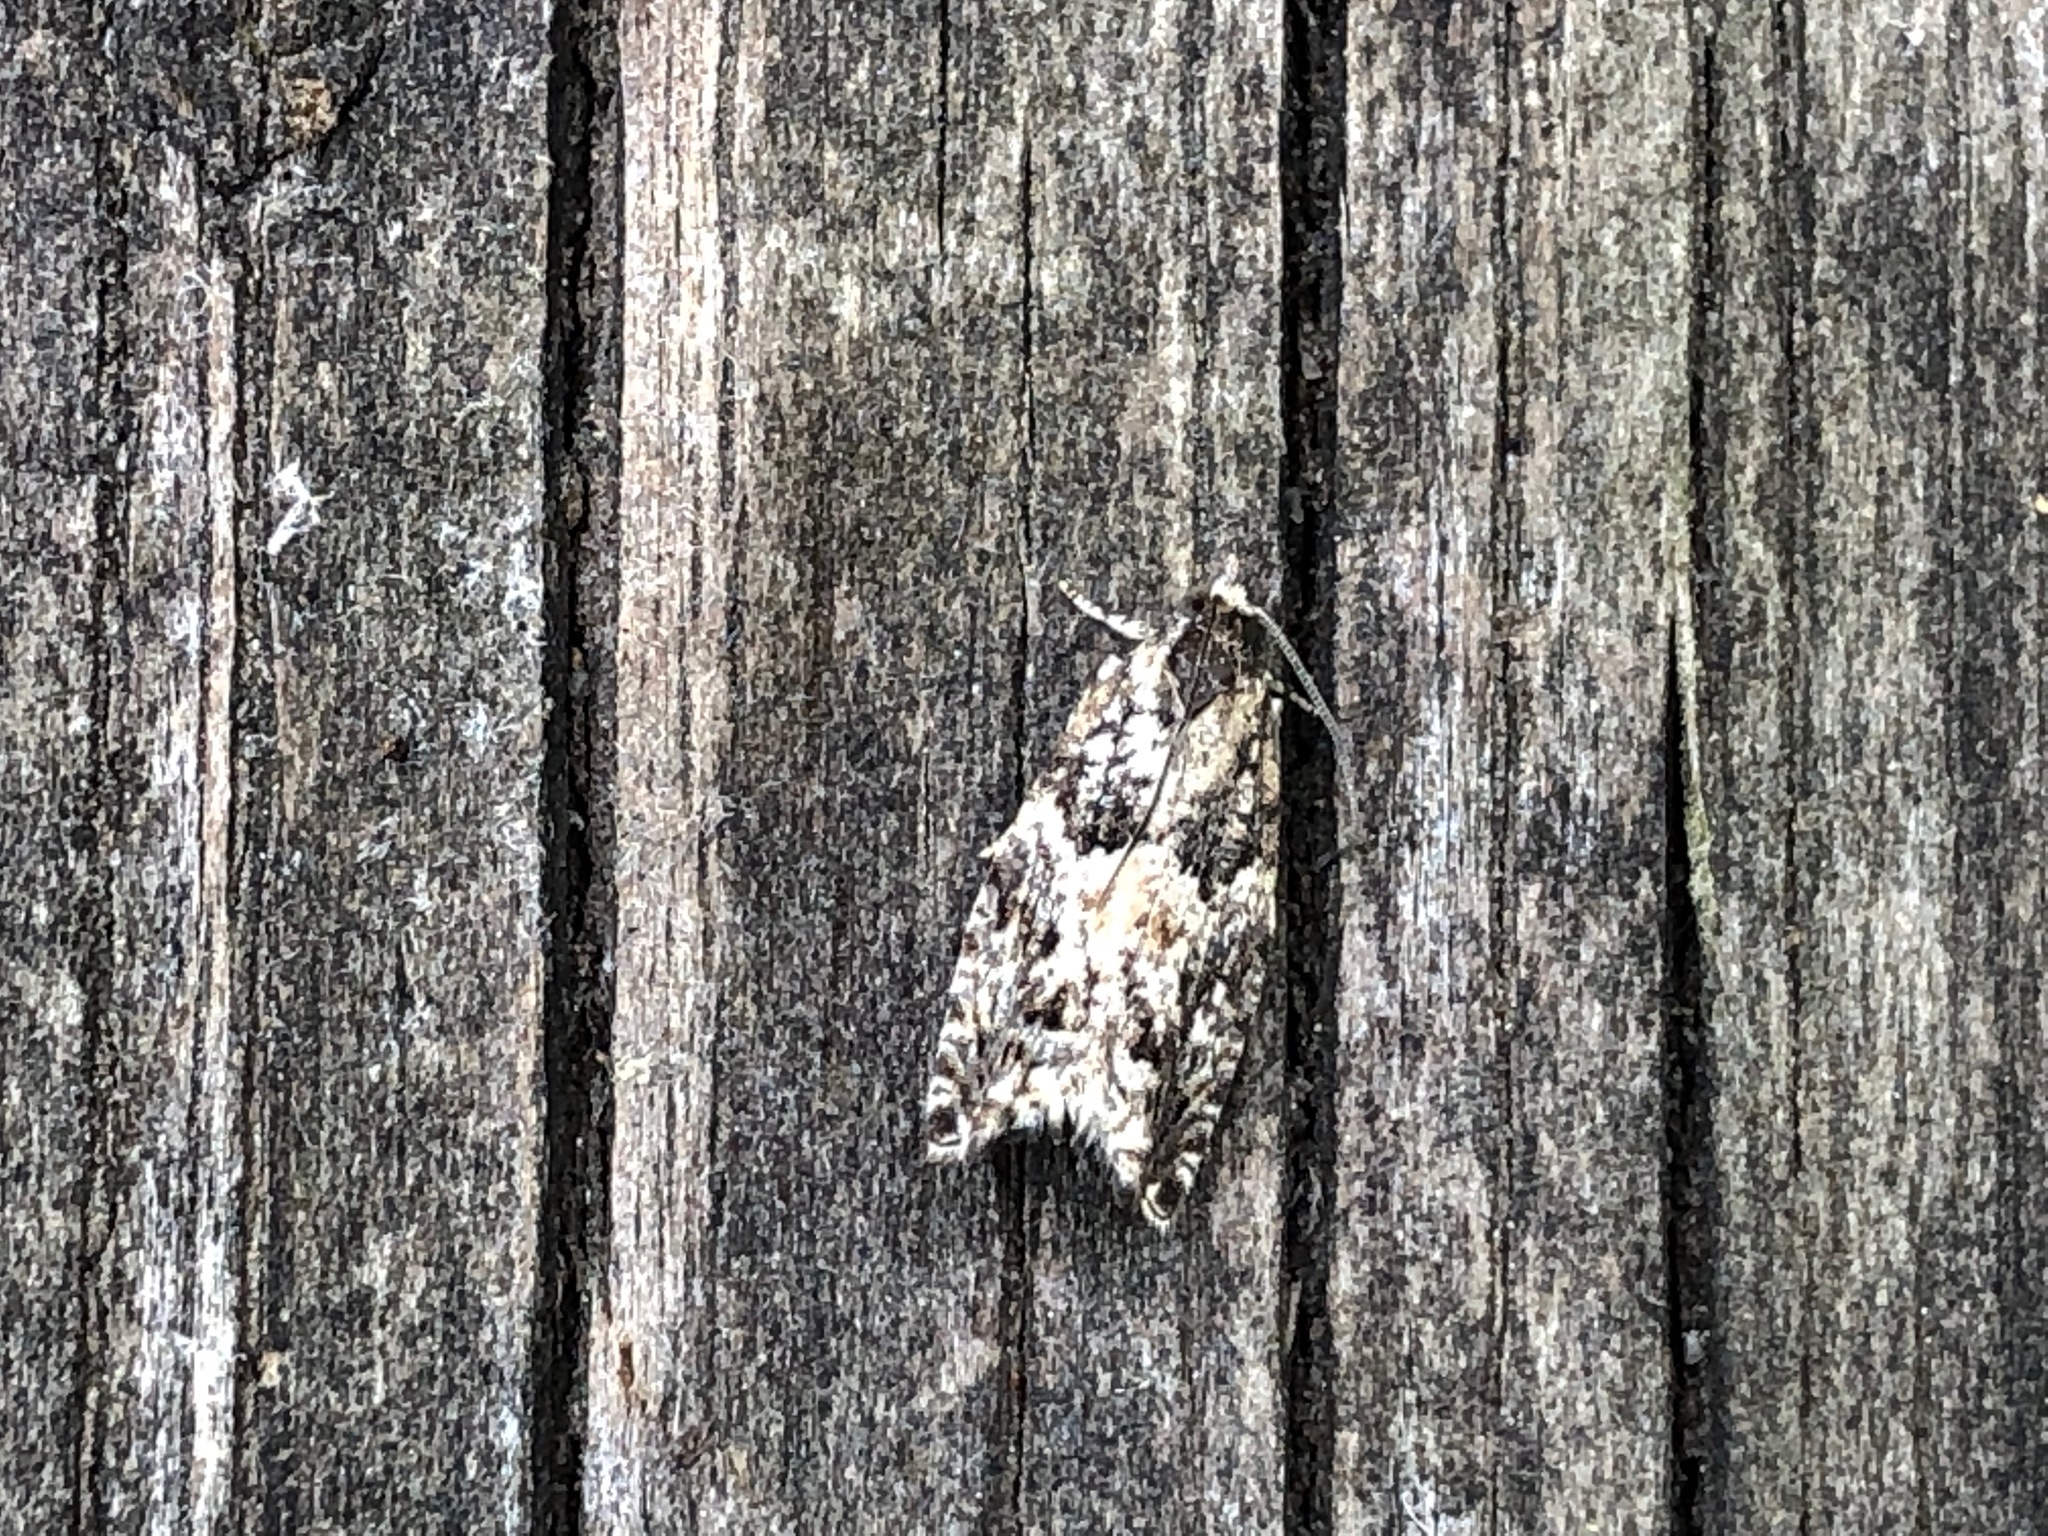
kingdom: Animalia
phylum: Arthropoda
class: Insecta
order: Lepidoptera
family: Tortricidae
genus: Epinotia
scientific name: Epinotia nisella
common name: Grey poplar bell
